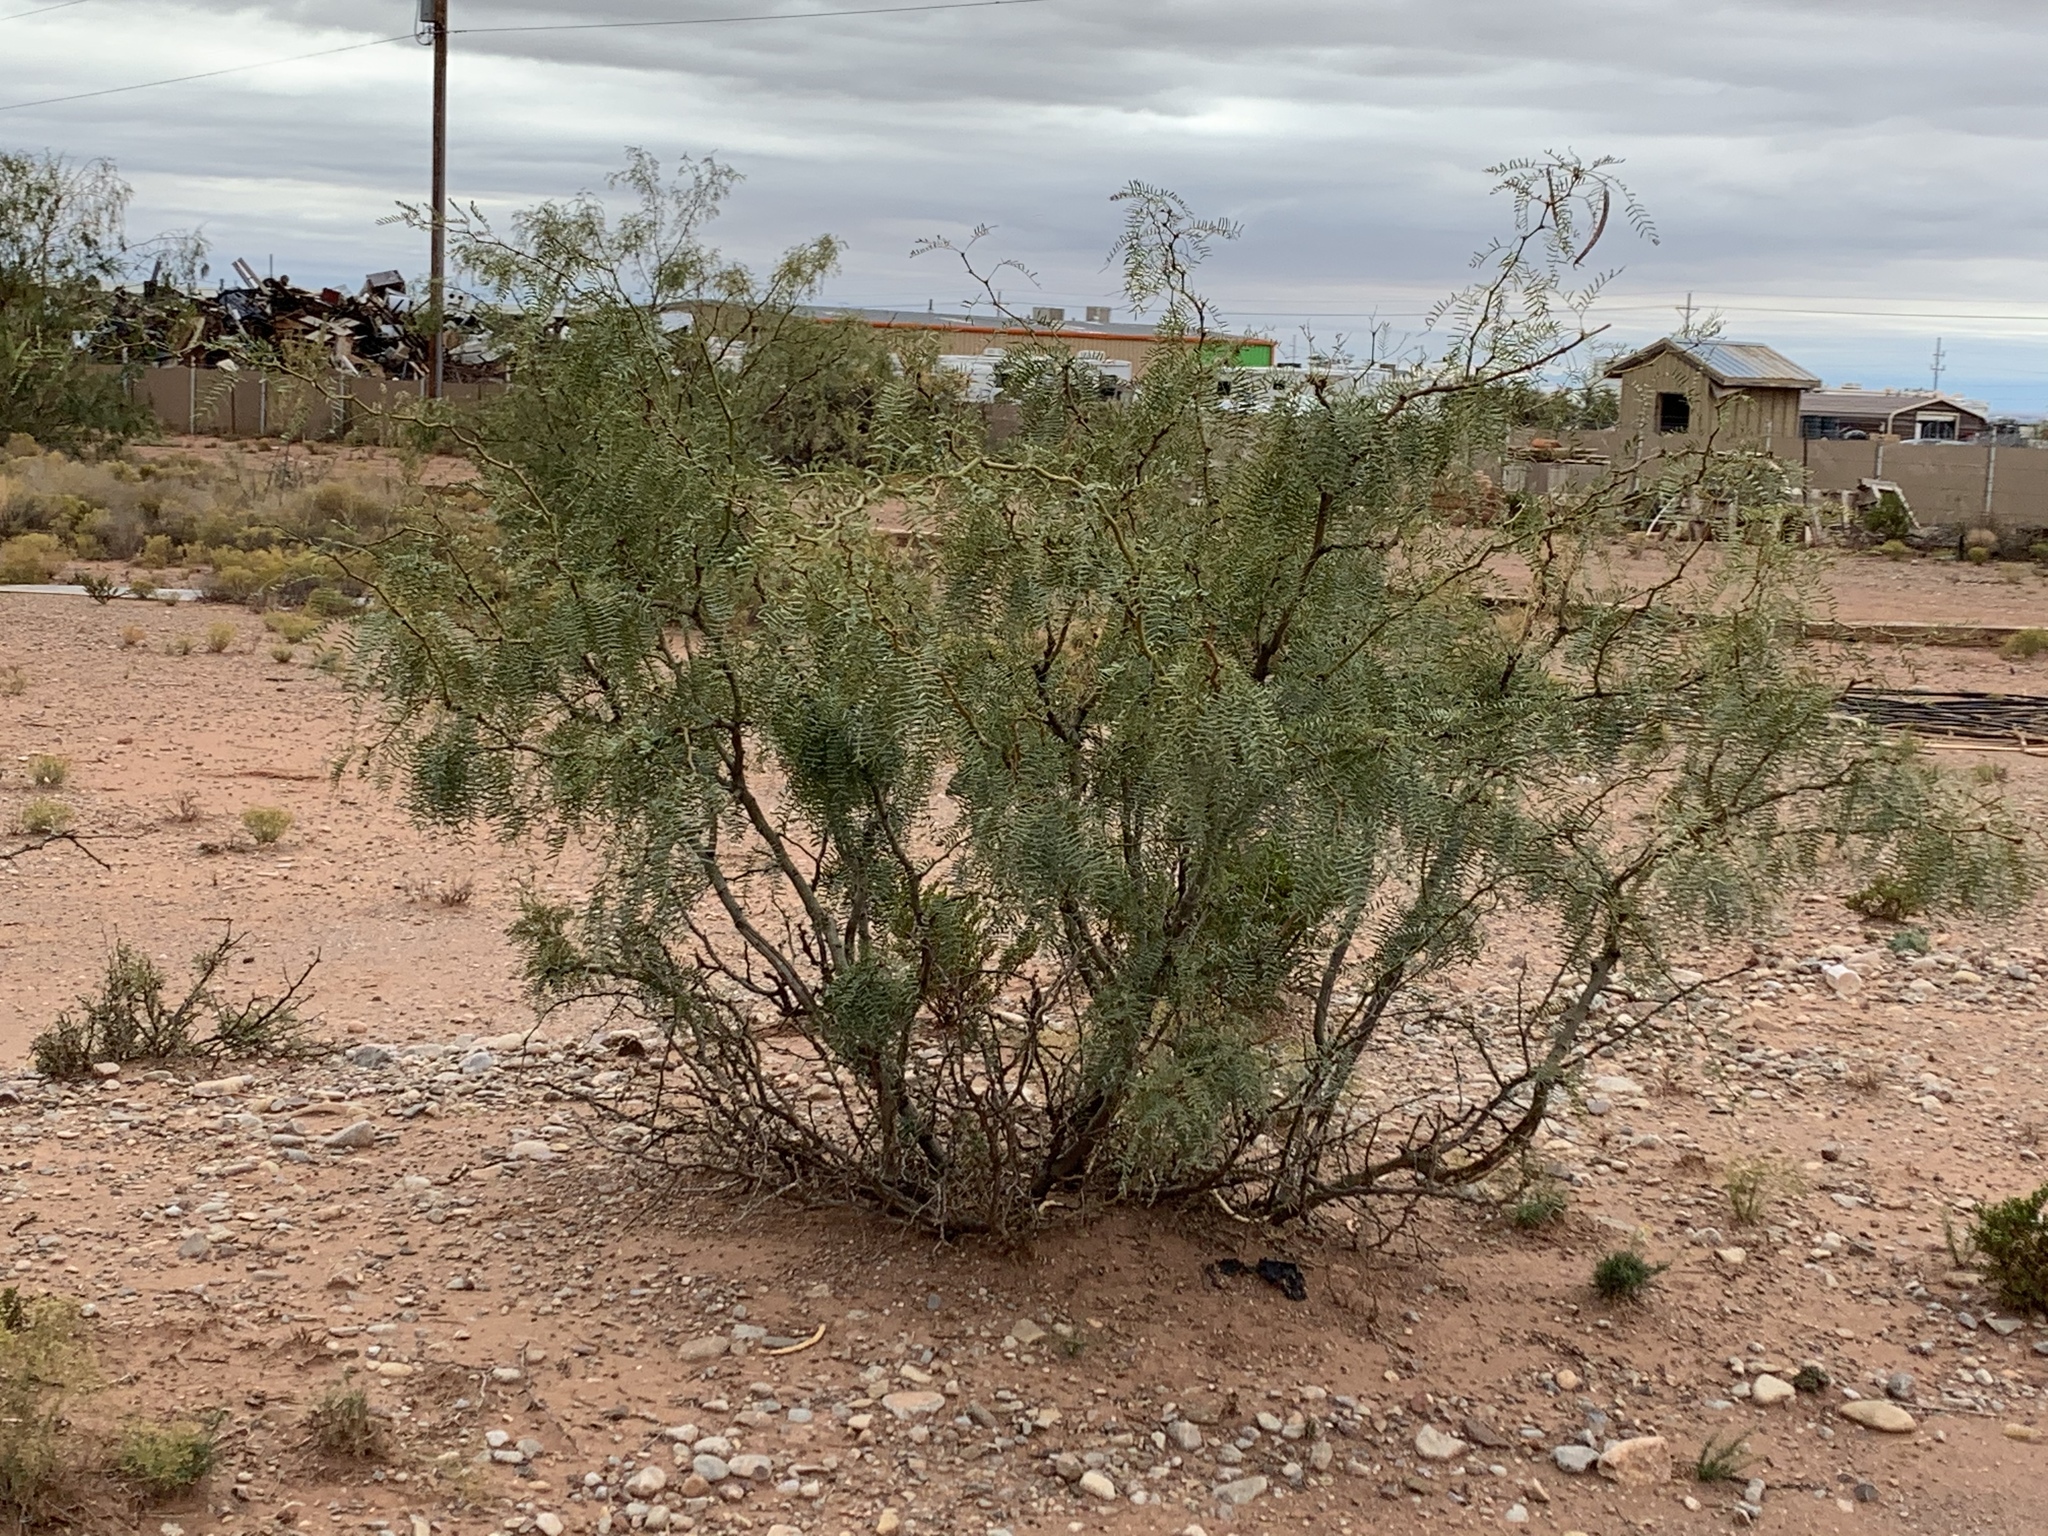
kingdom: Plantae
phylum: Tracheophyta
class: Magnoliopsida
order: Fabales
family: Fabaceae
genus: Prosopis
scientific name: Prosopis glandulosa
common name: Honey mesquite
